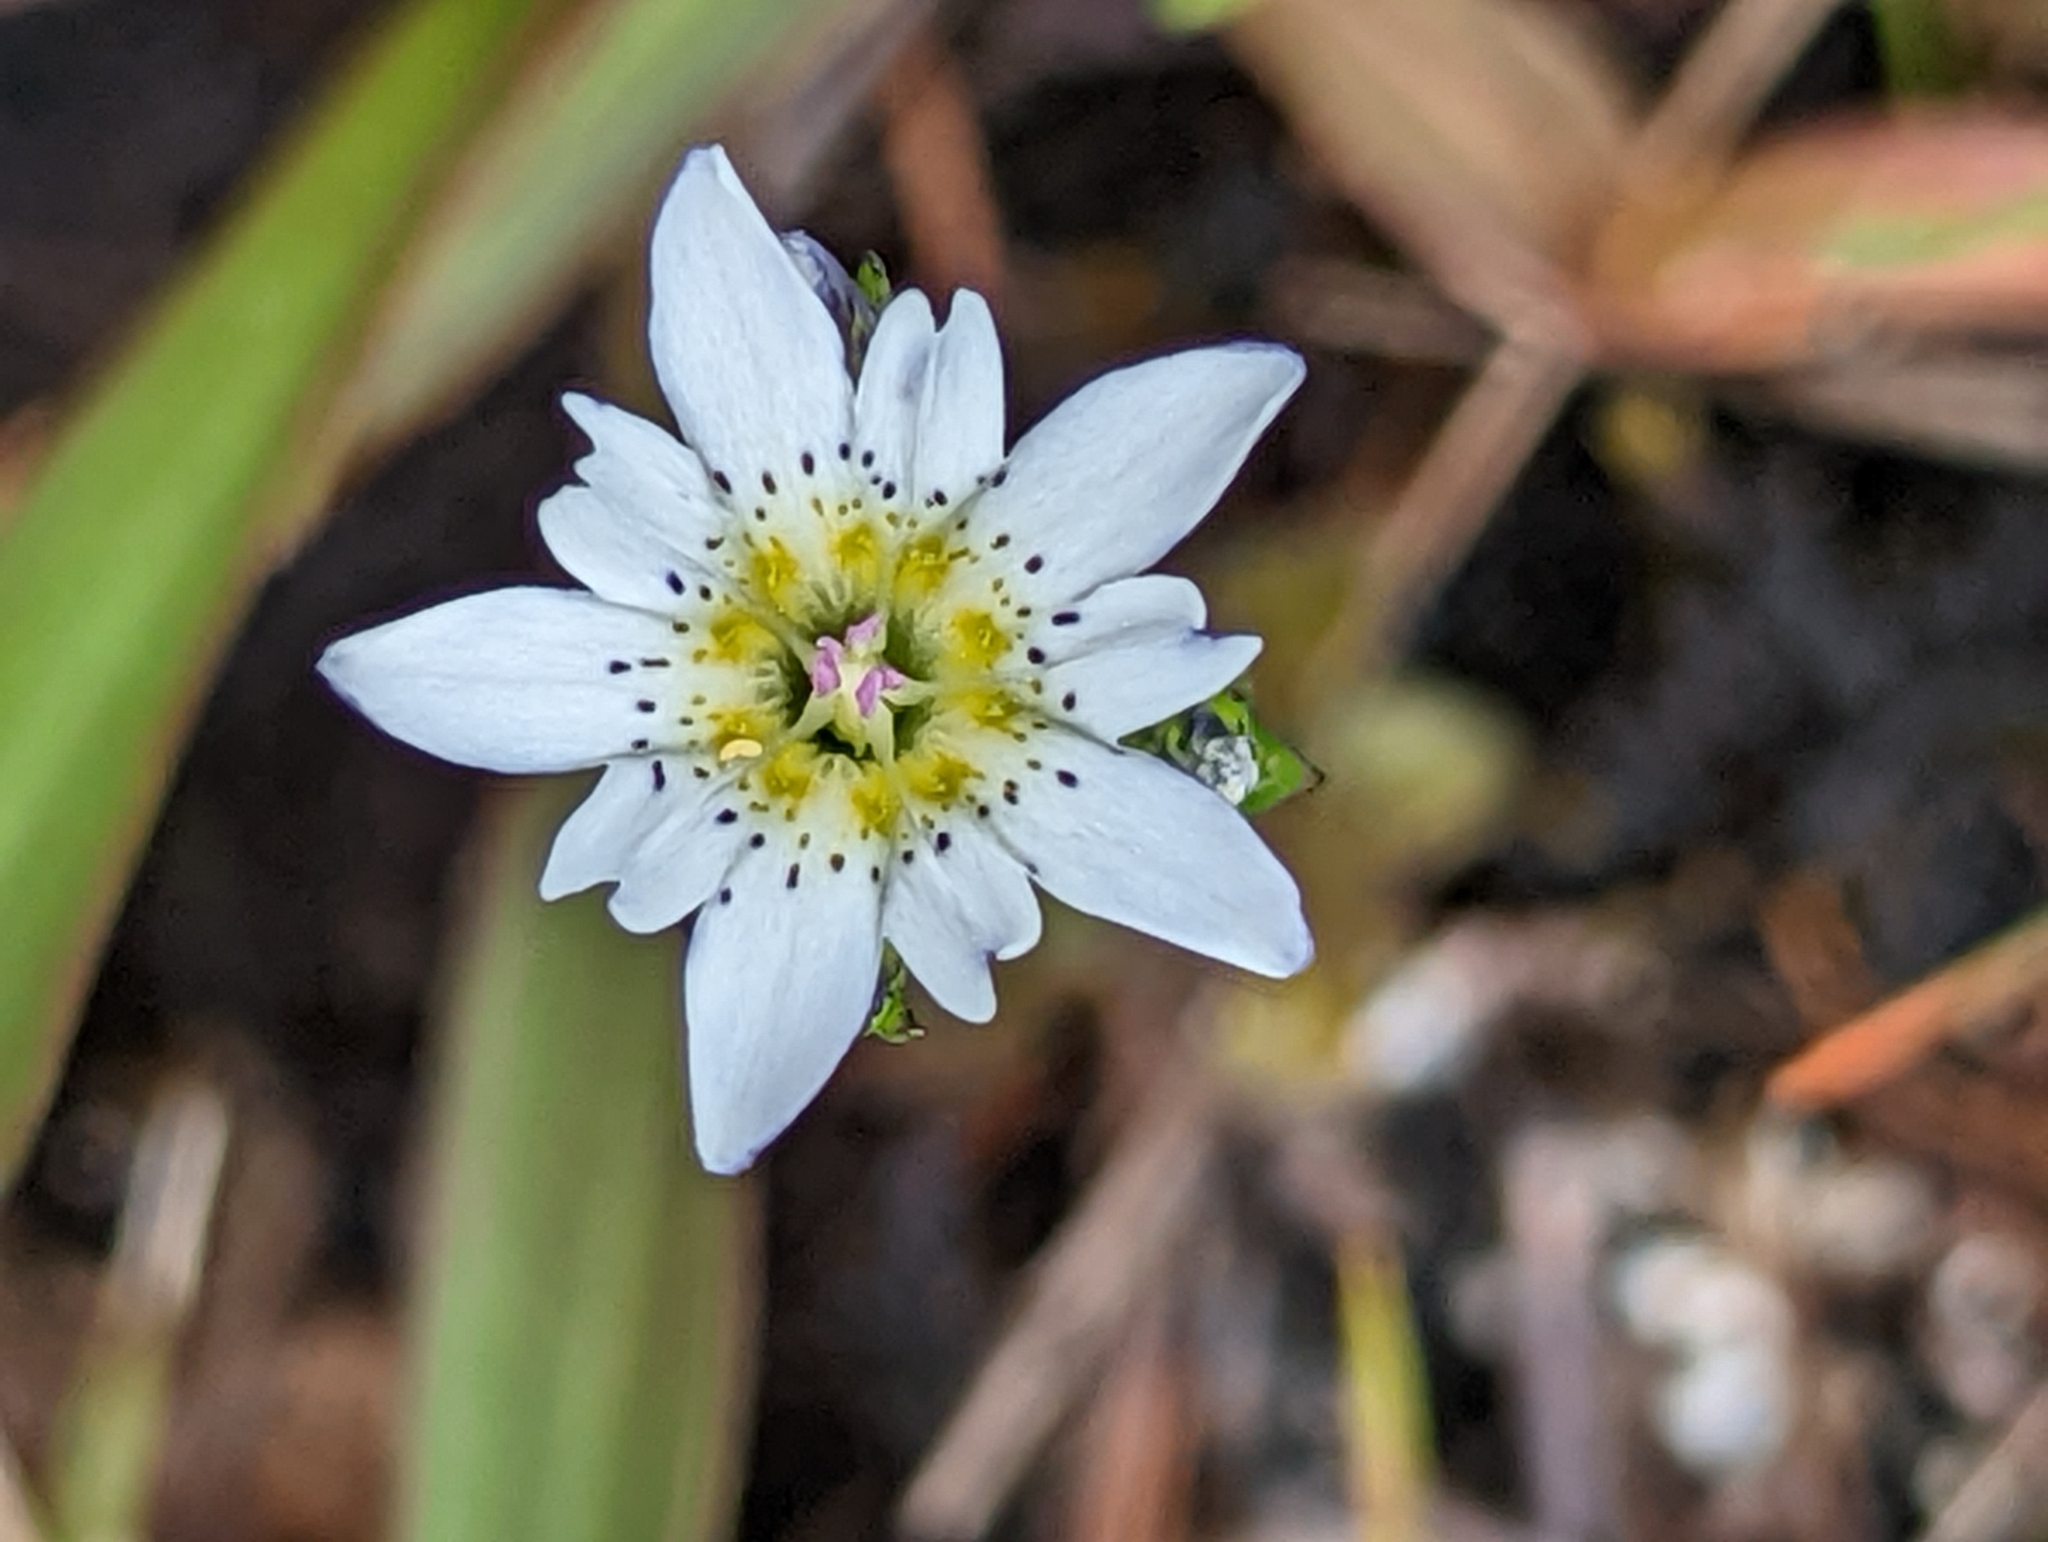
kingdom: Plantae
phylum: Tracheophyta
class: Magnoliopsida
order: Gentianales
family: Gentianaceae
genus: Gentiana
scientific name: Gentiana douglasiana
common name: Swamp gentian
